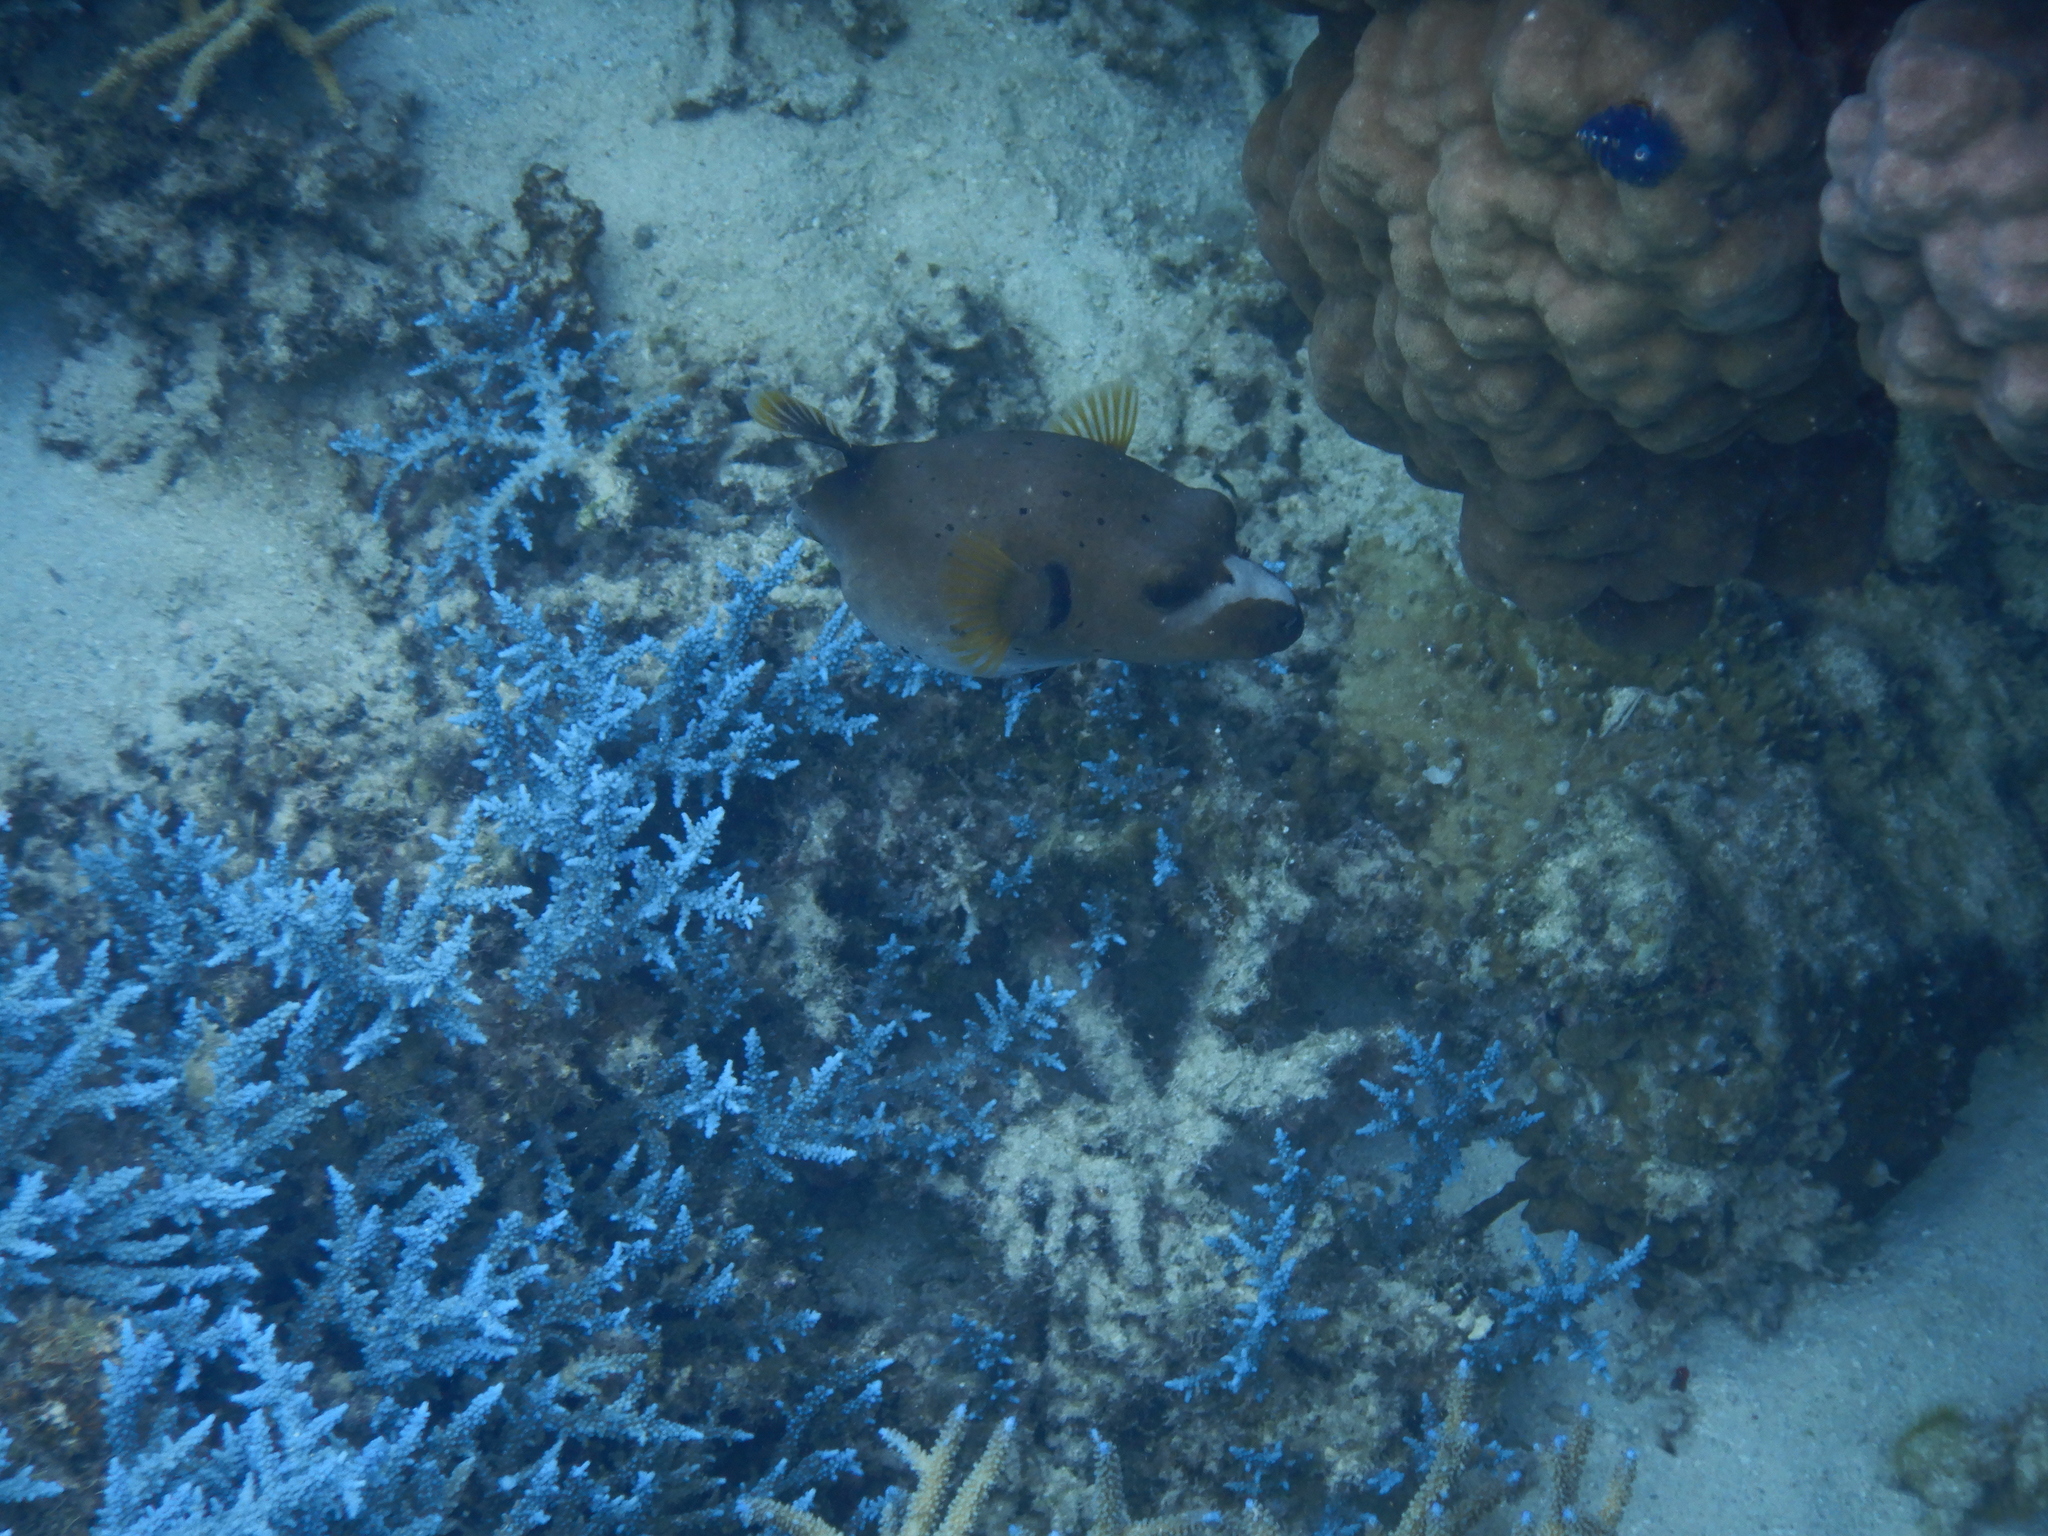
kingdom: Animalia
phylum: Chordata
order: Tetraodontiformes
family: Tetraodontidae
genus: Arothron
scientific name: Arothron nigropunctatus
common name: Black spotted blow fish
